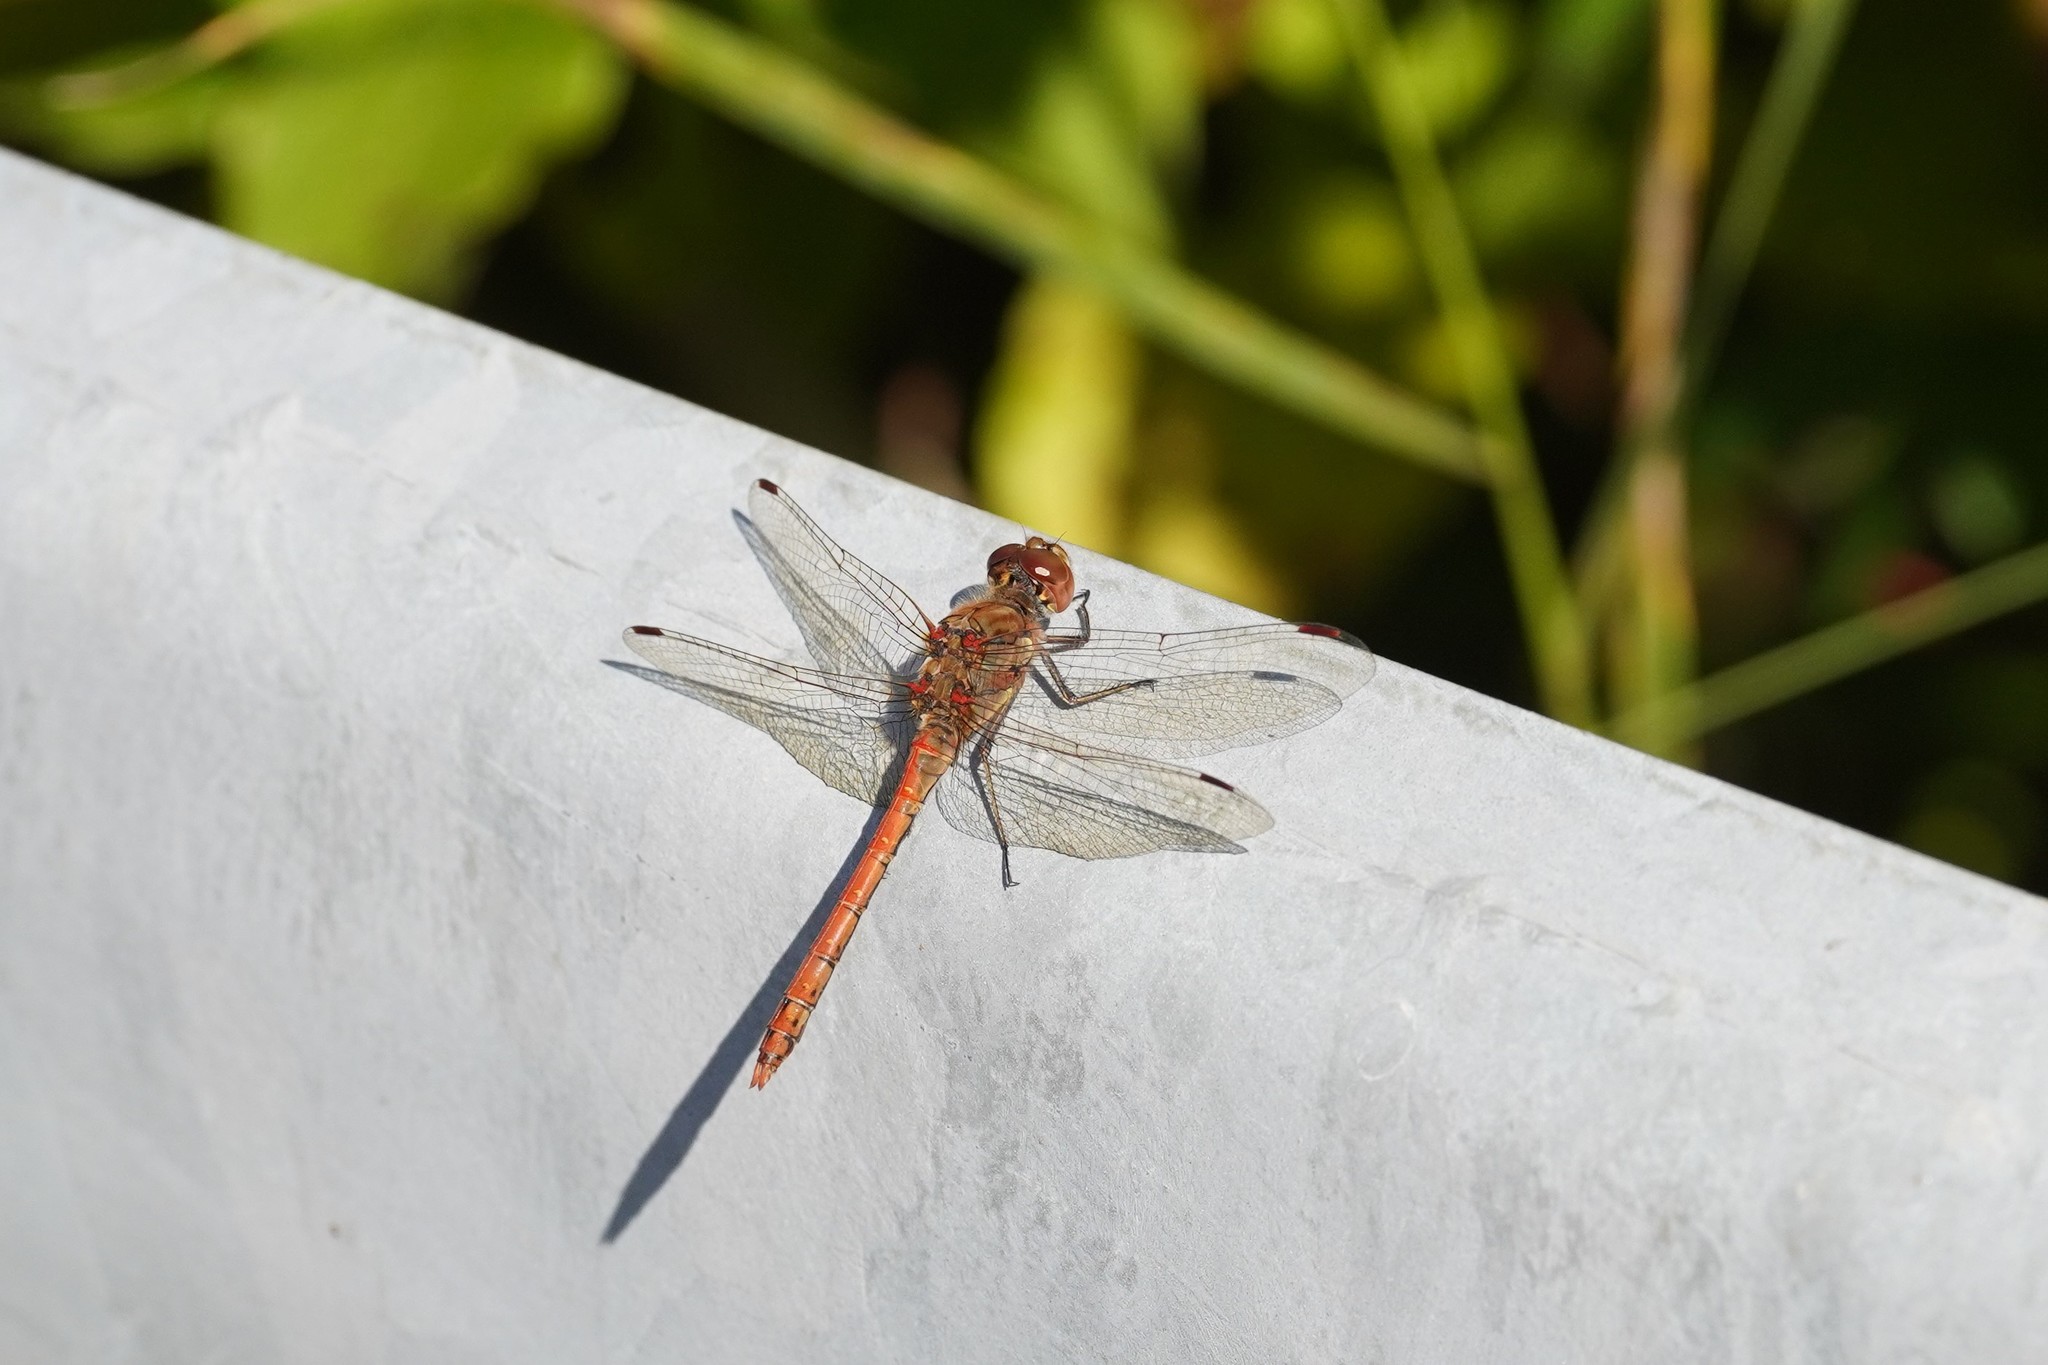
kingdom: Animalia
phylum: Arthropoda
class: Insecta
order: Odonata
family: Libellulidae
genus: Sympetrum
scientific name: Sympetrum striolatum
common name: Common darter
